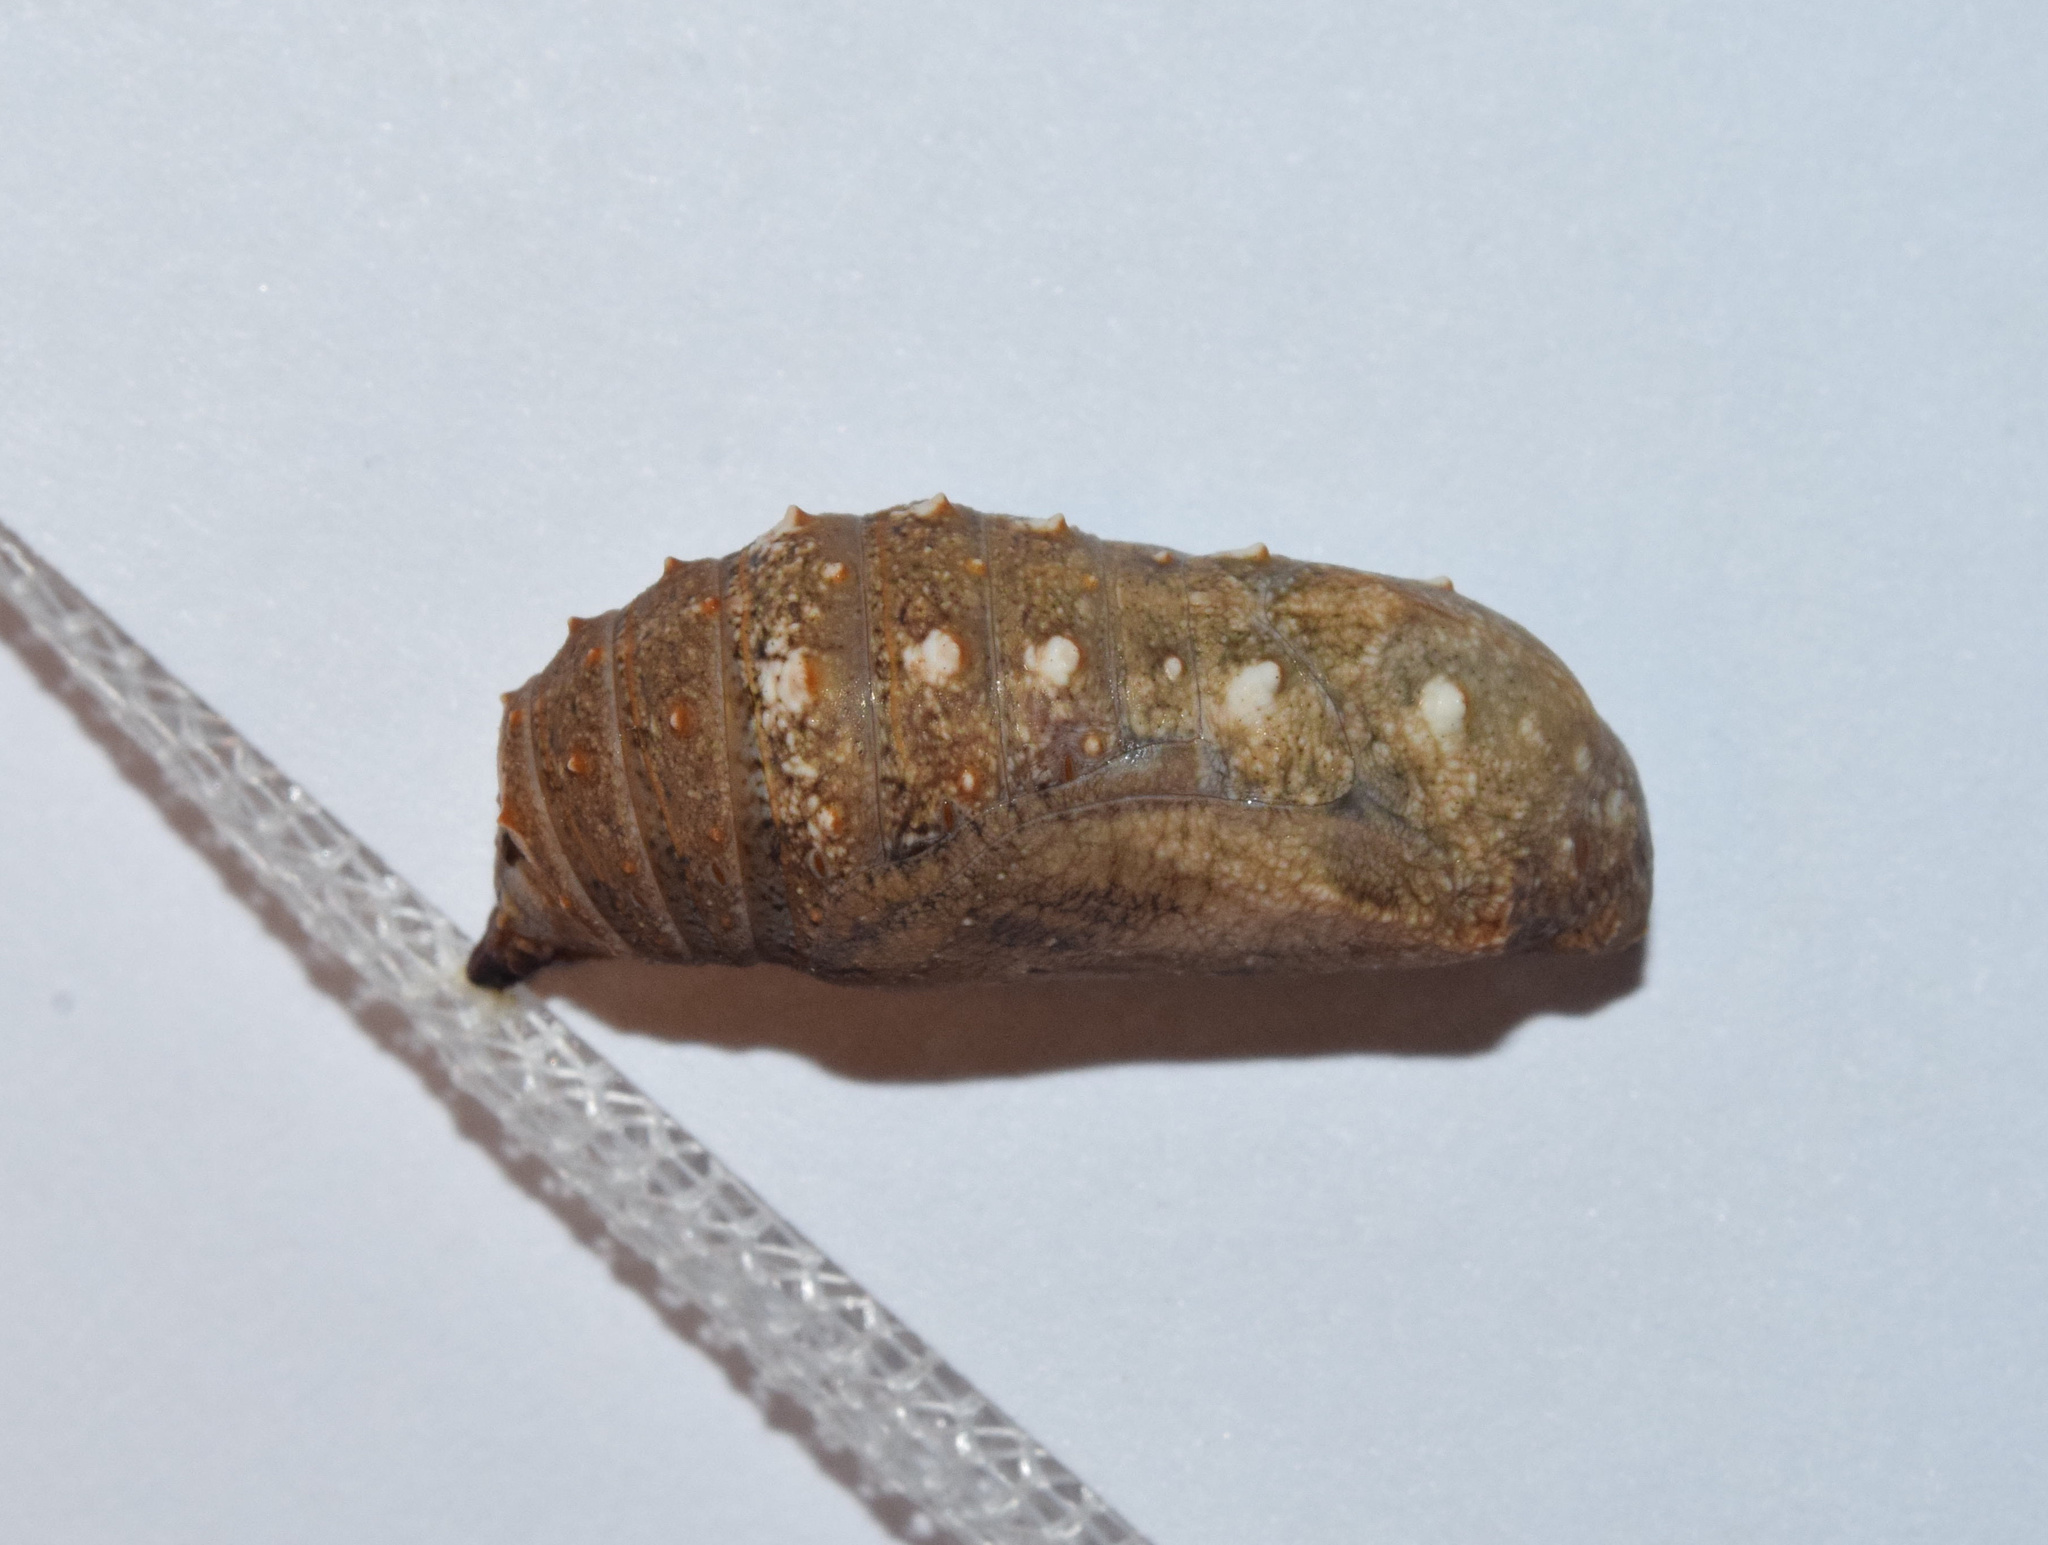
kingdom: Animalia
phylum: Arthropoda
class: Insecta
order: Lepidoptera
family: Nymphalidae
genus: Junonia
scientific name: Junonia oenone
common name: Dark blue pansy
